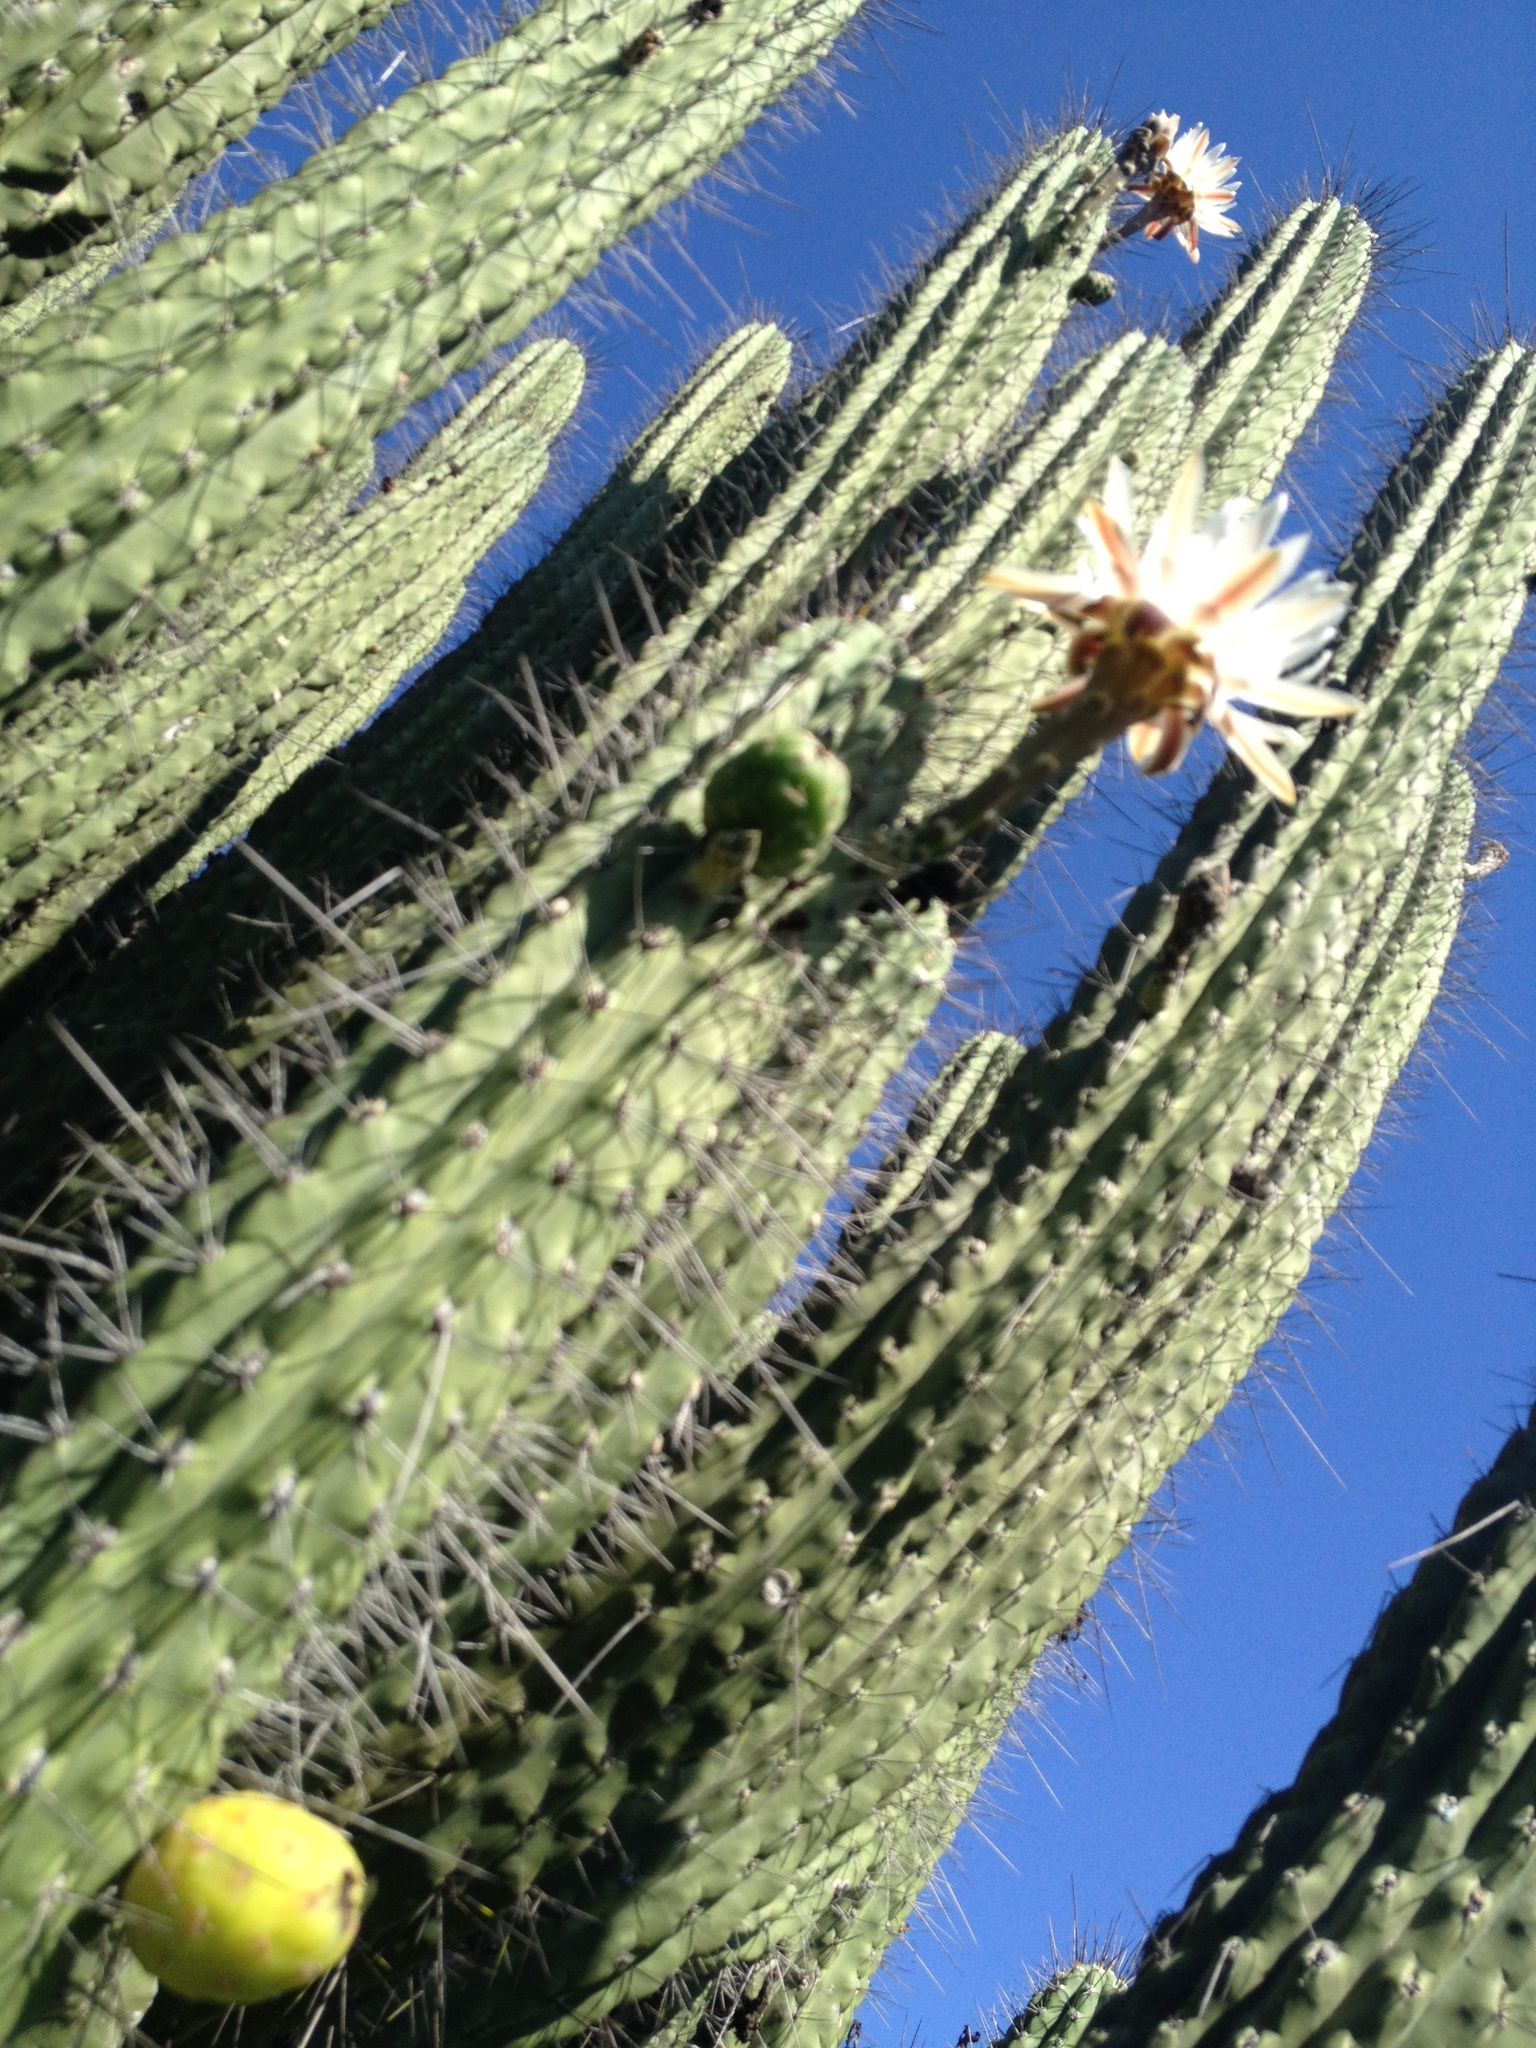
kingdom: Plantae
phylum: Tracheophyta
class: Magnoliopsida
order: Caryophyllales
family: Cactaceae
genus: Stetsonia
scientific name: Stetsonia coryne
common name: Toothpick cactus
